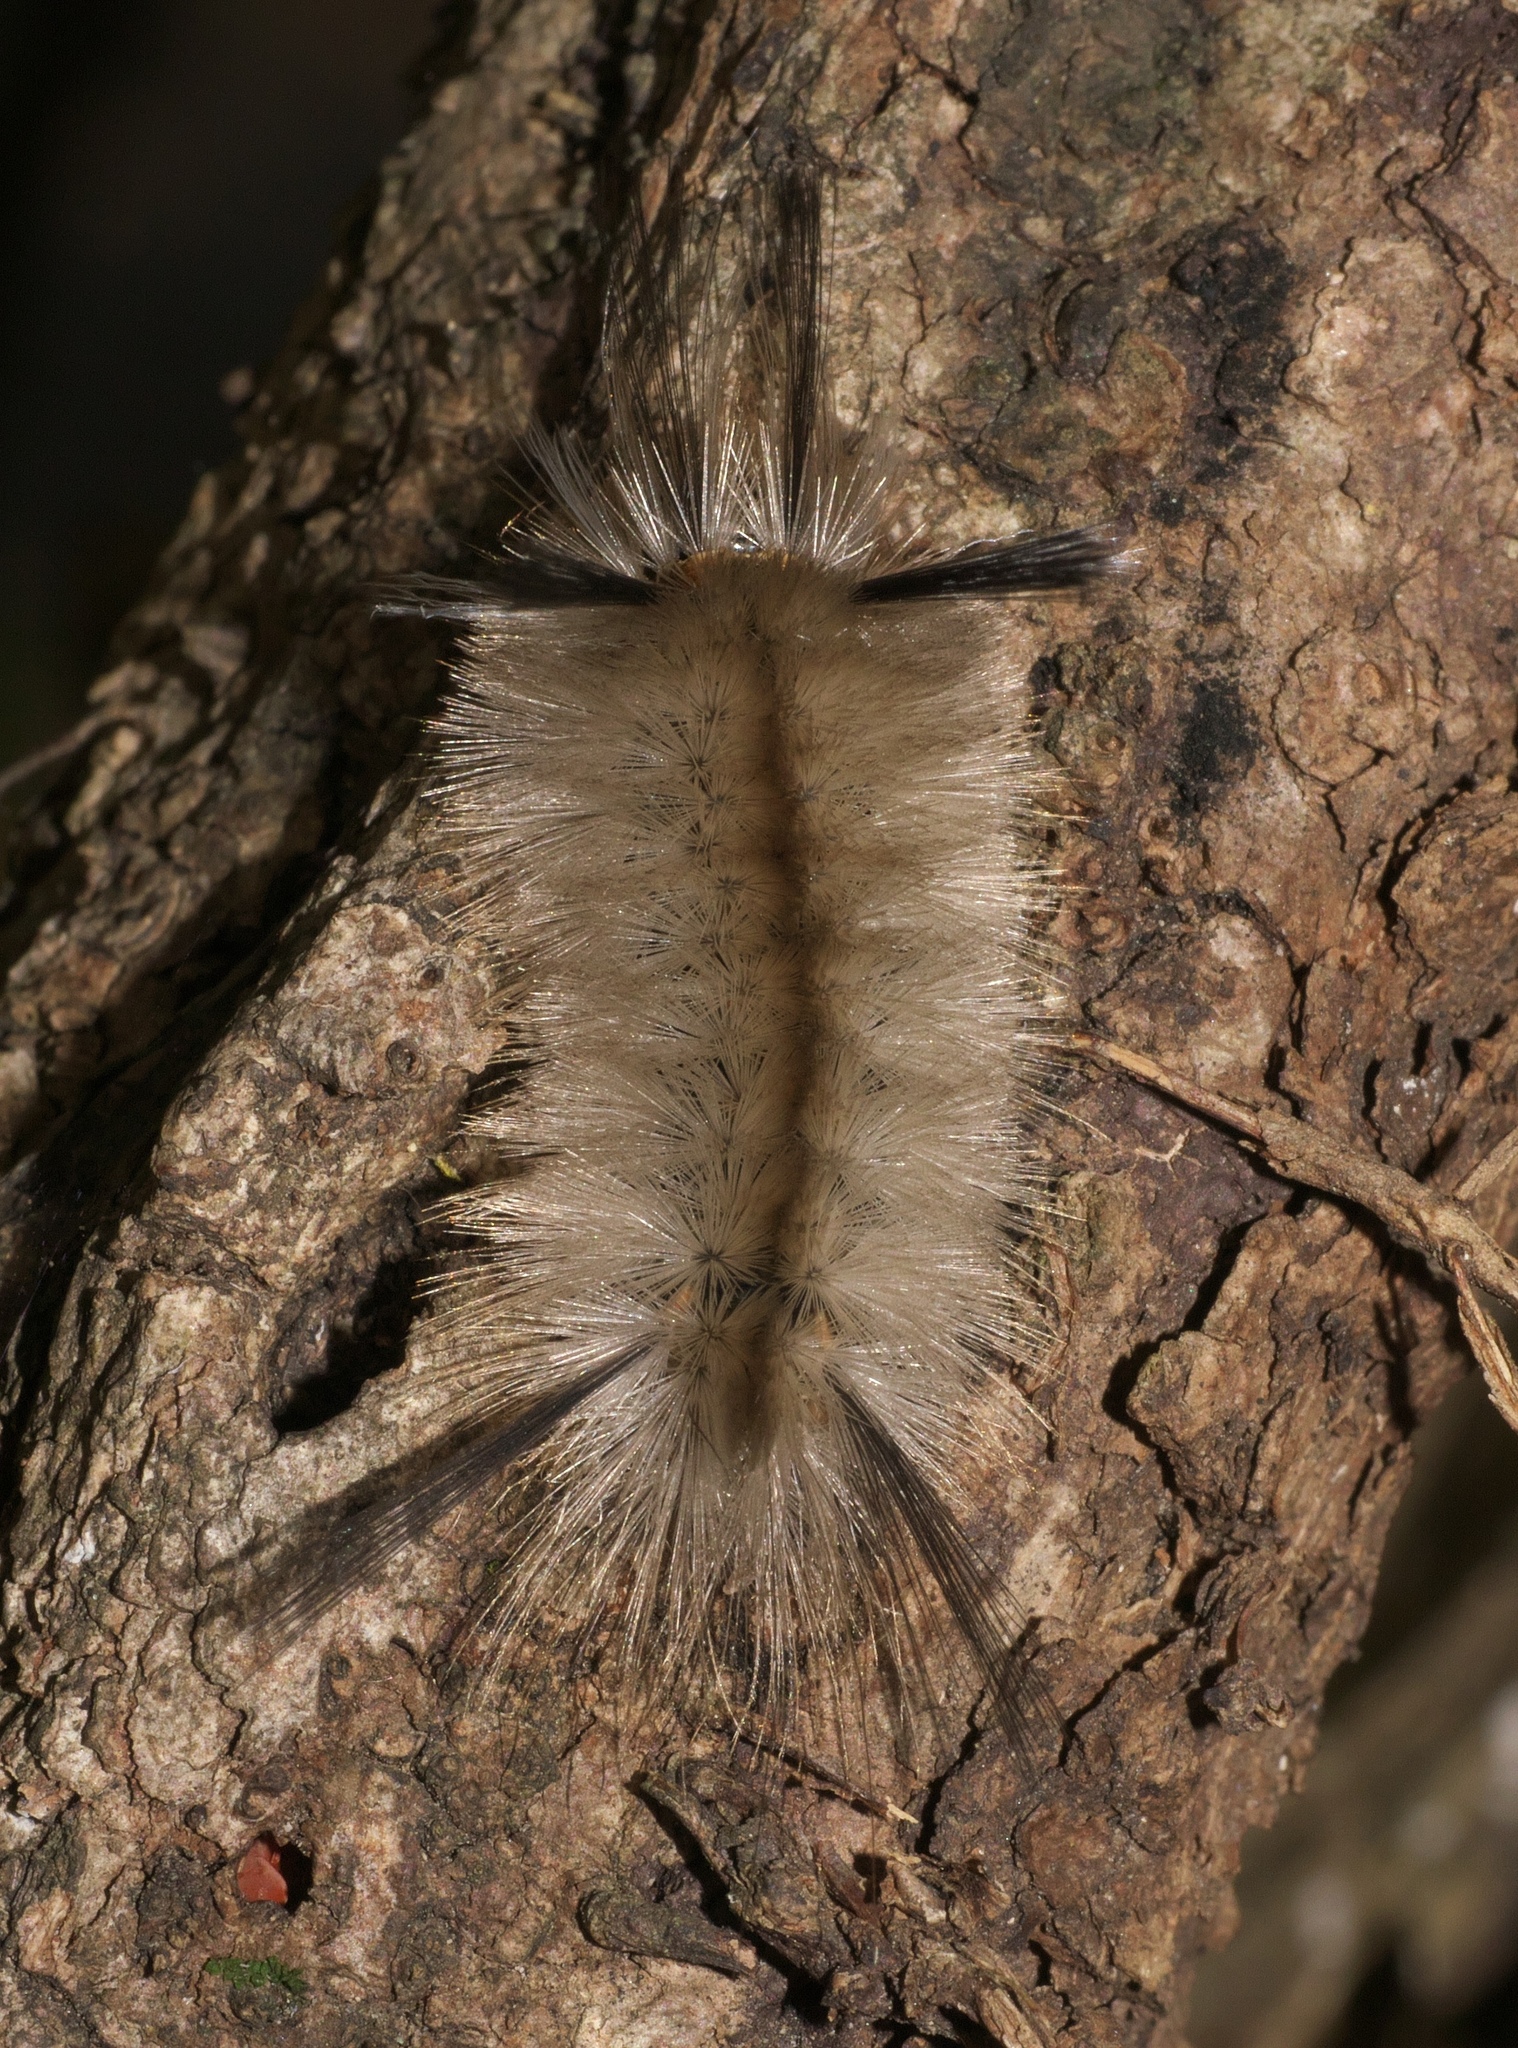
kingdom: Animalia
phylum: Arthropoda
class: Insecta
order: Lepidoptera
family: Erebidae
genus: Halysidota
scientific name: Halysidota tessellaris
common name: Banded tussock moth
